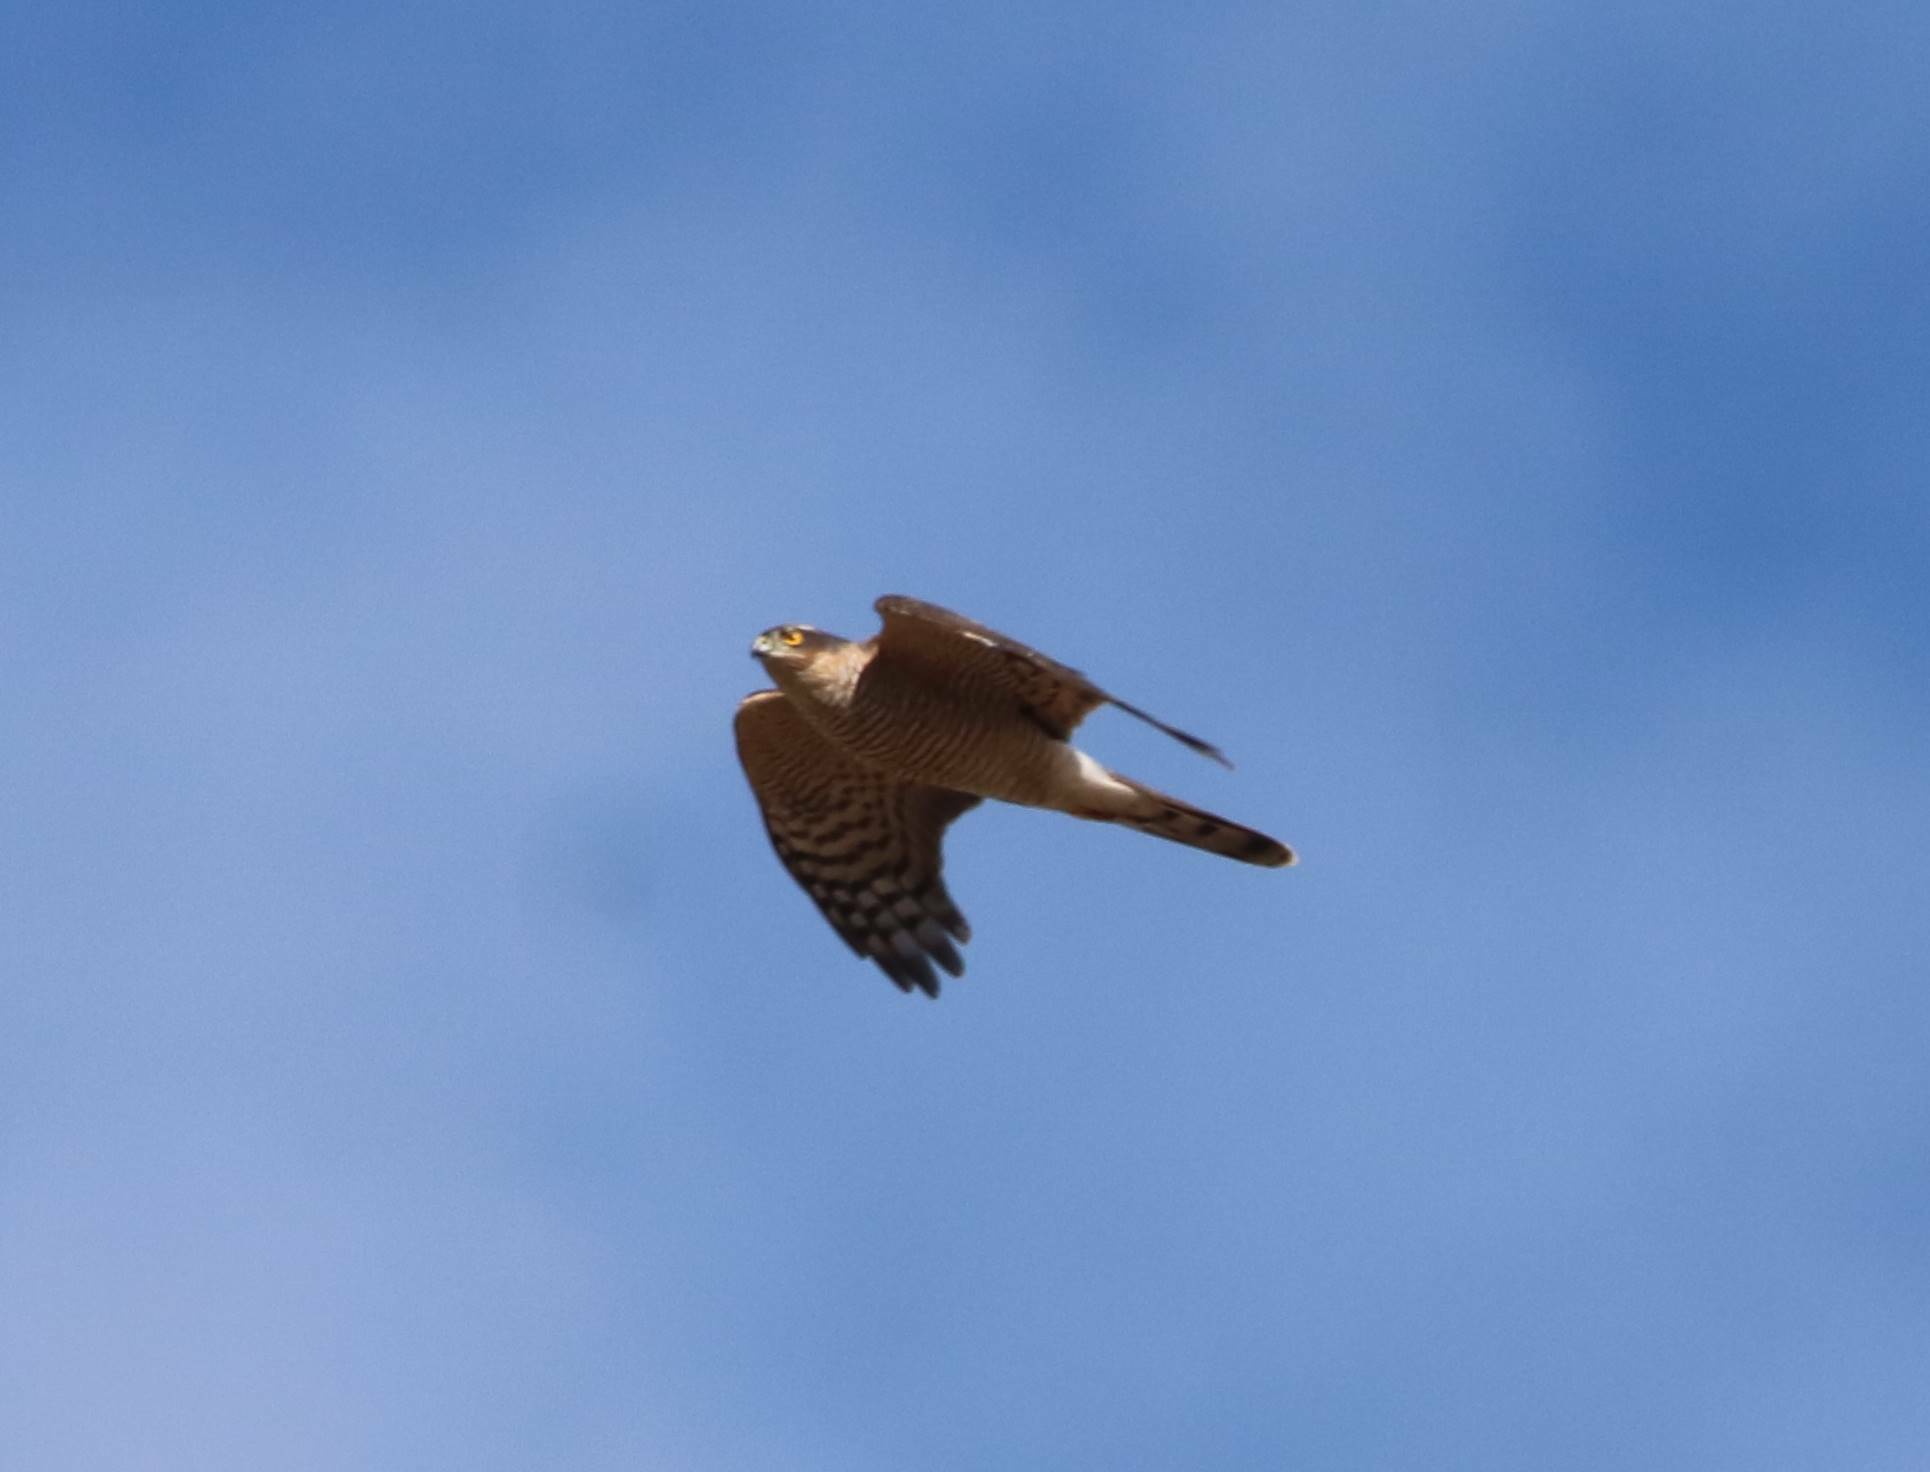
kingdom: Animalia
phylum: Chordata
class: Aves
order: Accipitriformes
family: Accipitridae
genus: Accipiter
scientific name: Accipiter nisus
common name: Eurasian sparrowhawk
